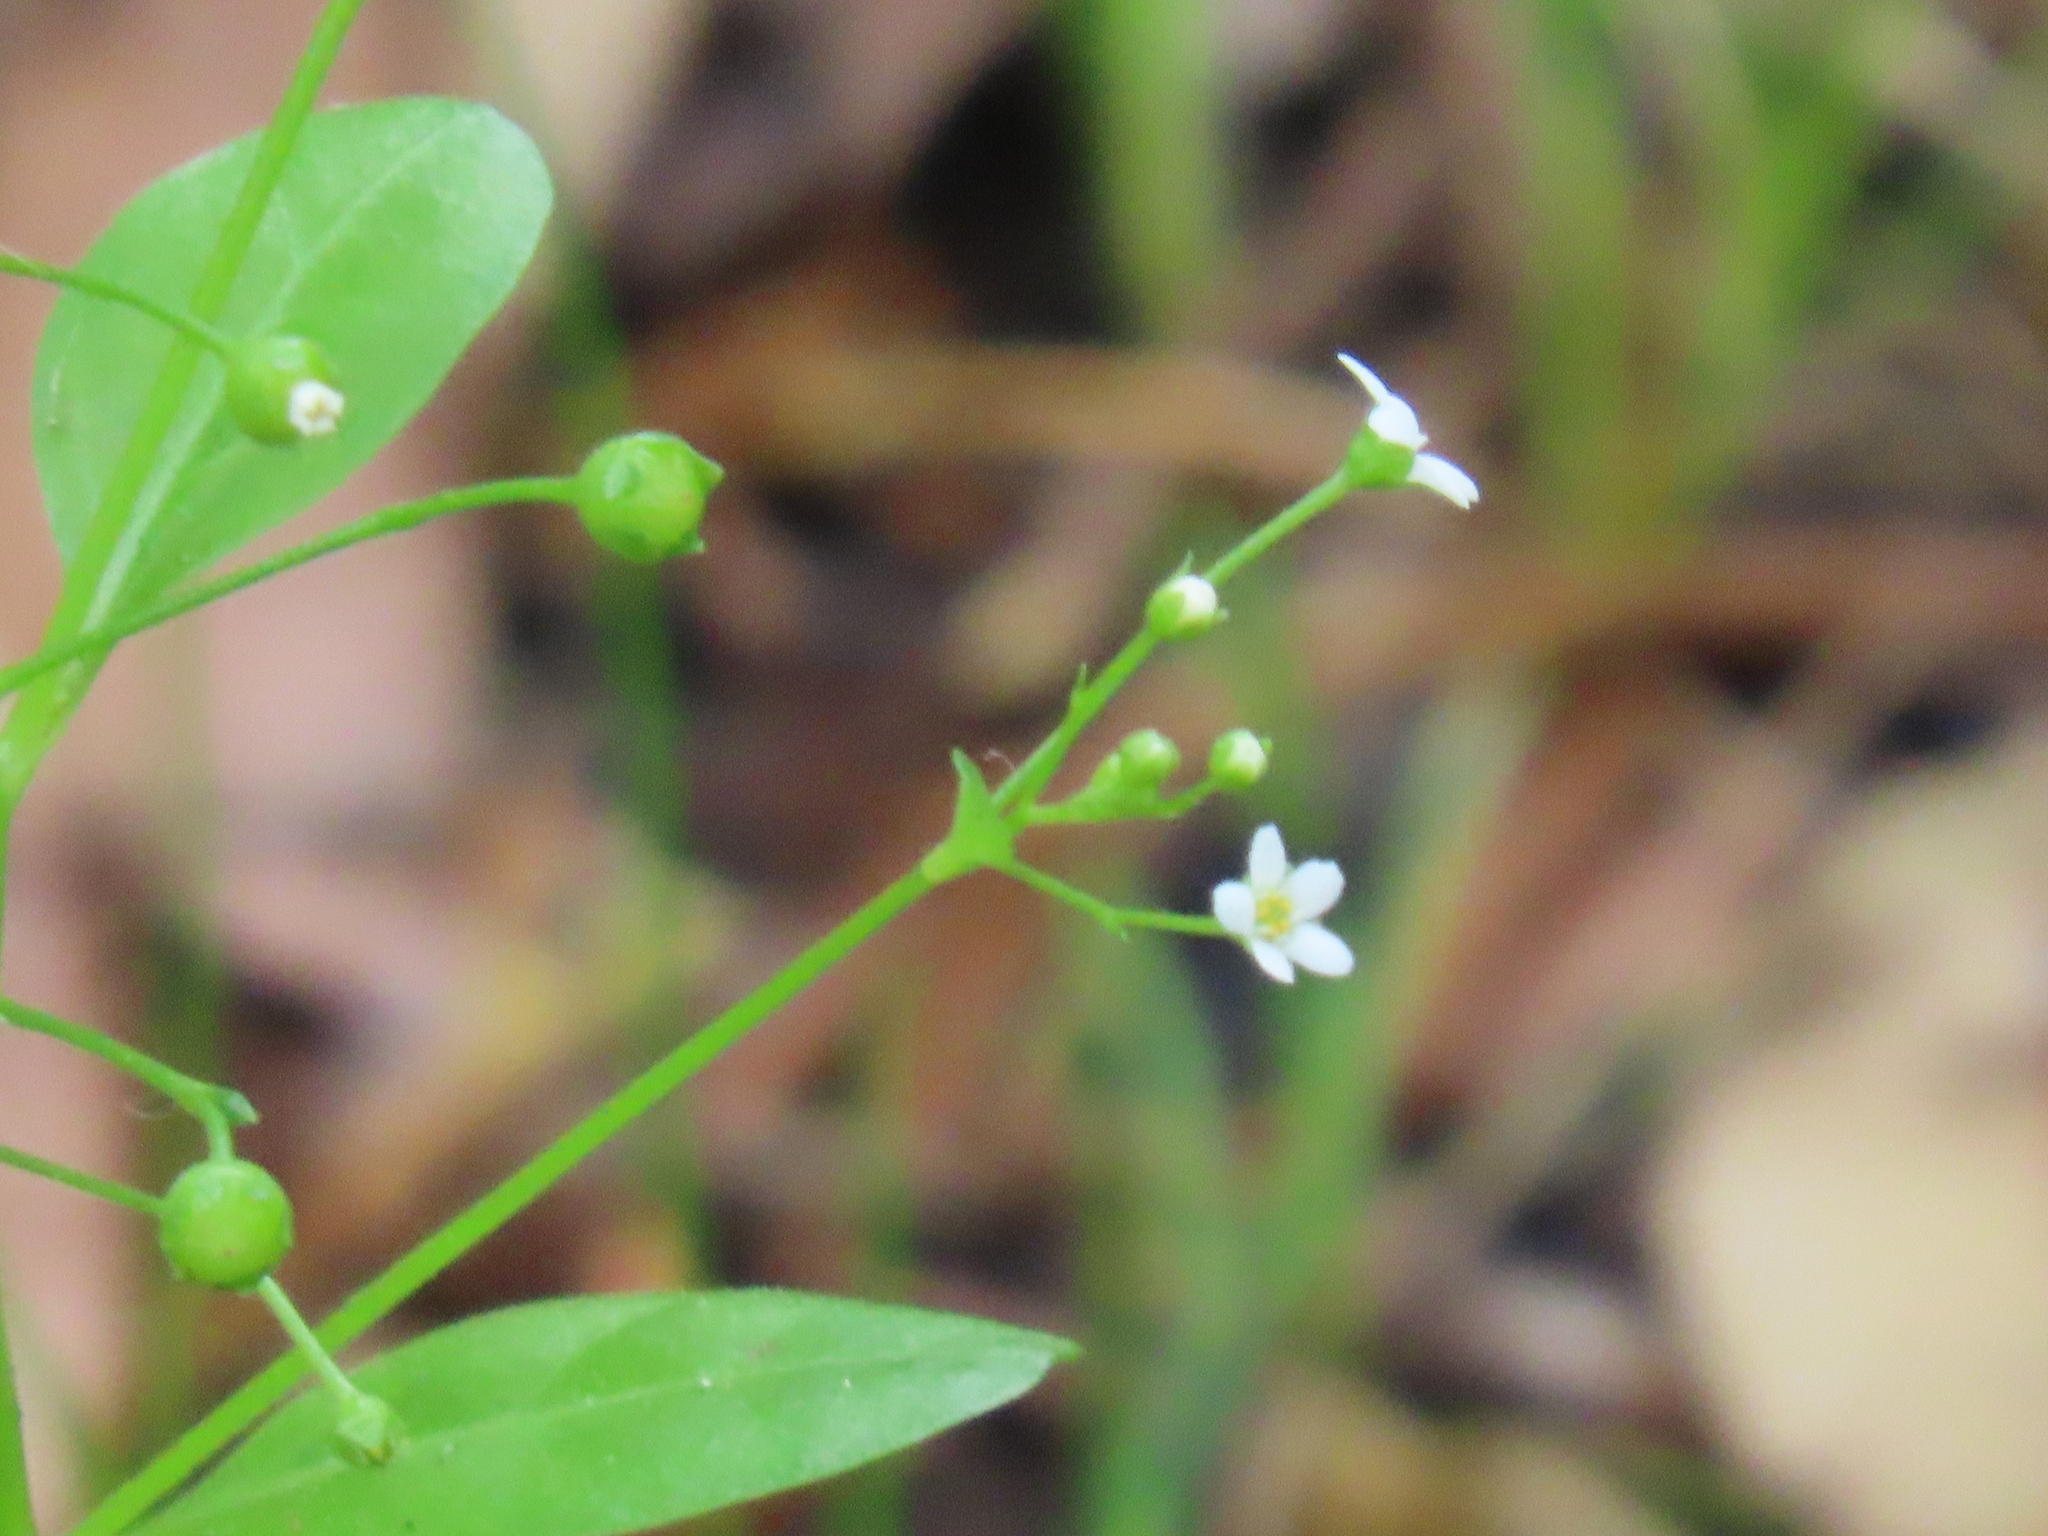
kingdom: Plantae
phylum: Tracheophyta
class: Magnoliopsida
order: Ericales
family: Primulaceae
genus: Samolus
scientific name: Samolus parviflorus
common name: False water pimpernel
